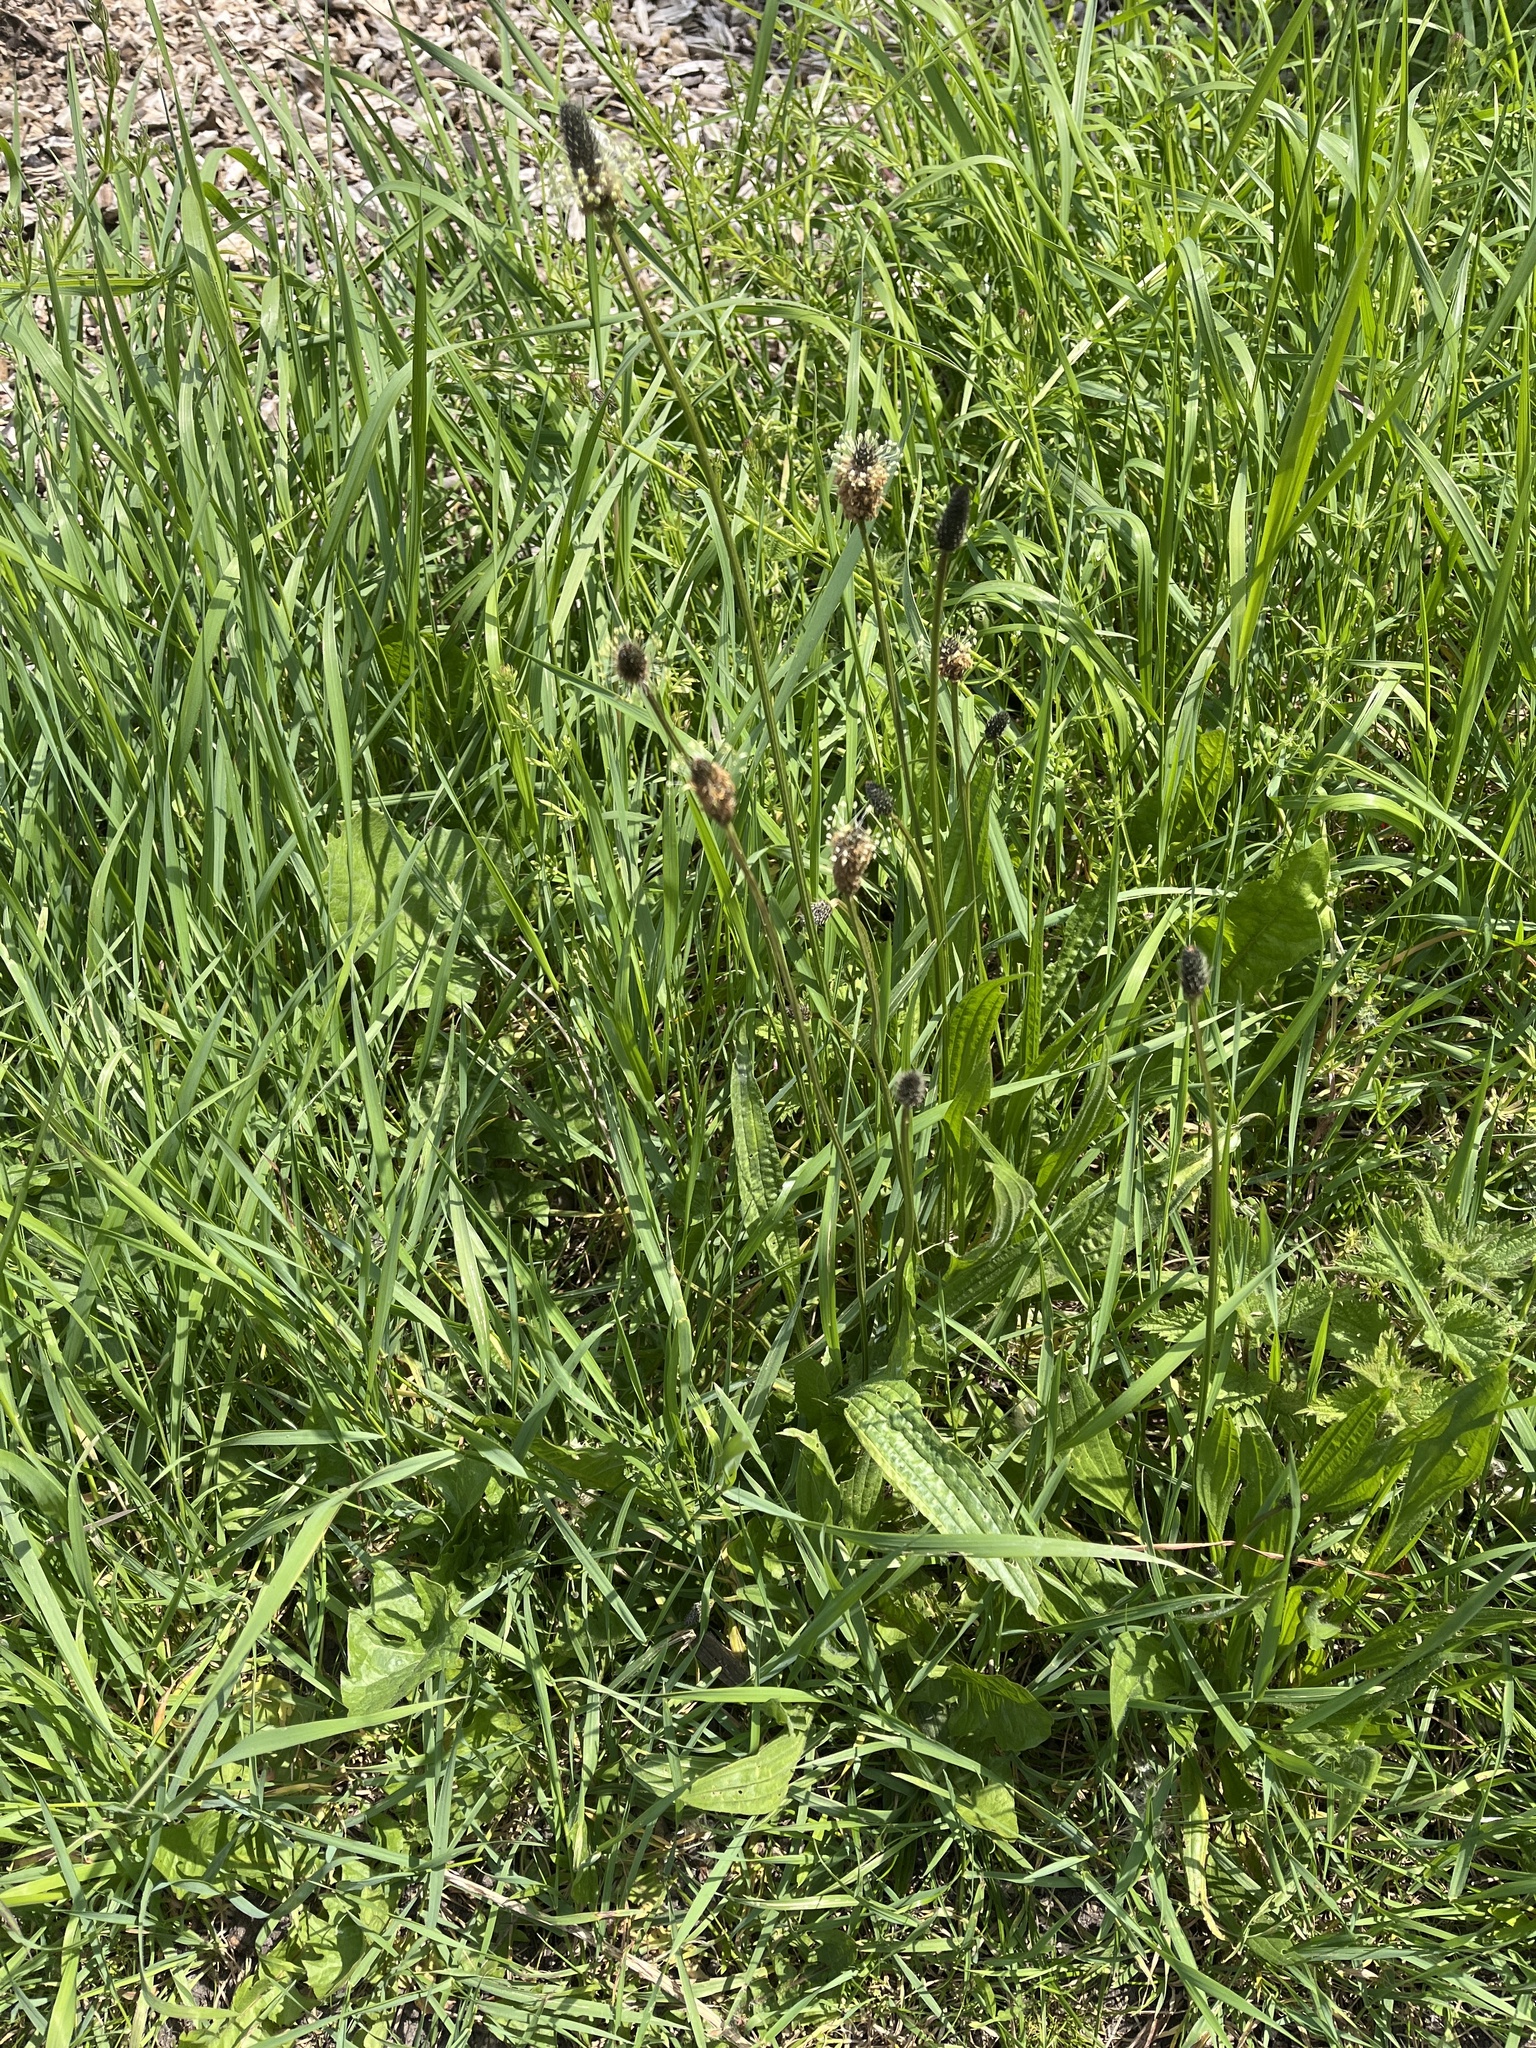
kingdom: Plantae
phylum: Tracheophyta
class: Magnoliopsida
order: Lamiales
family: Plantaginaceae
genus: Plantago
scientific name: Plantago lanceolata
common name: Ribwort plantain
